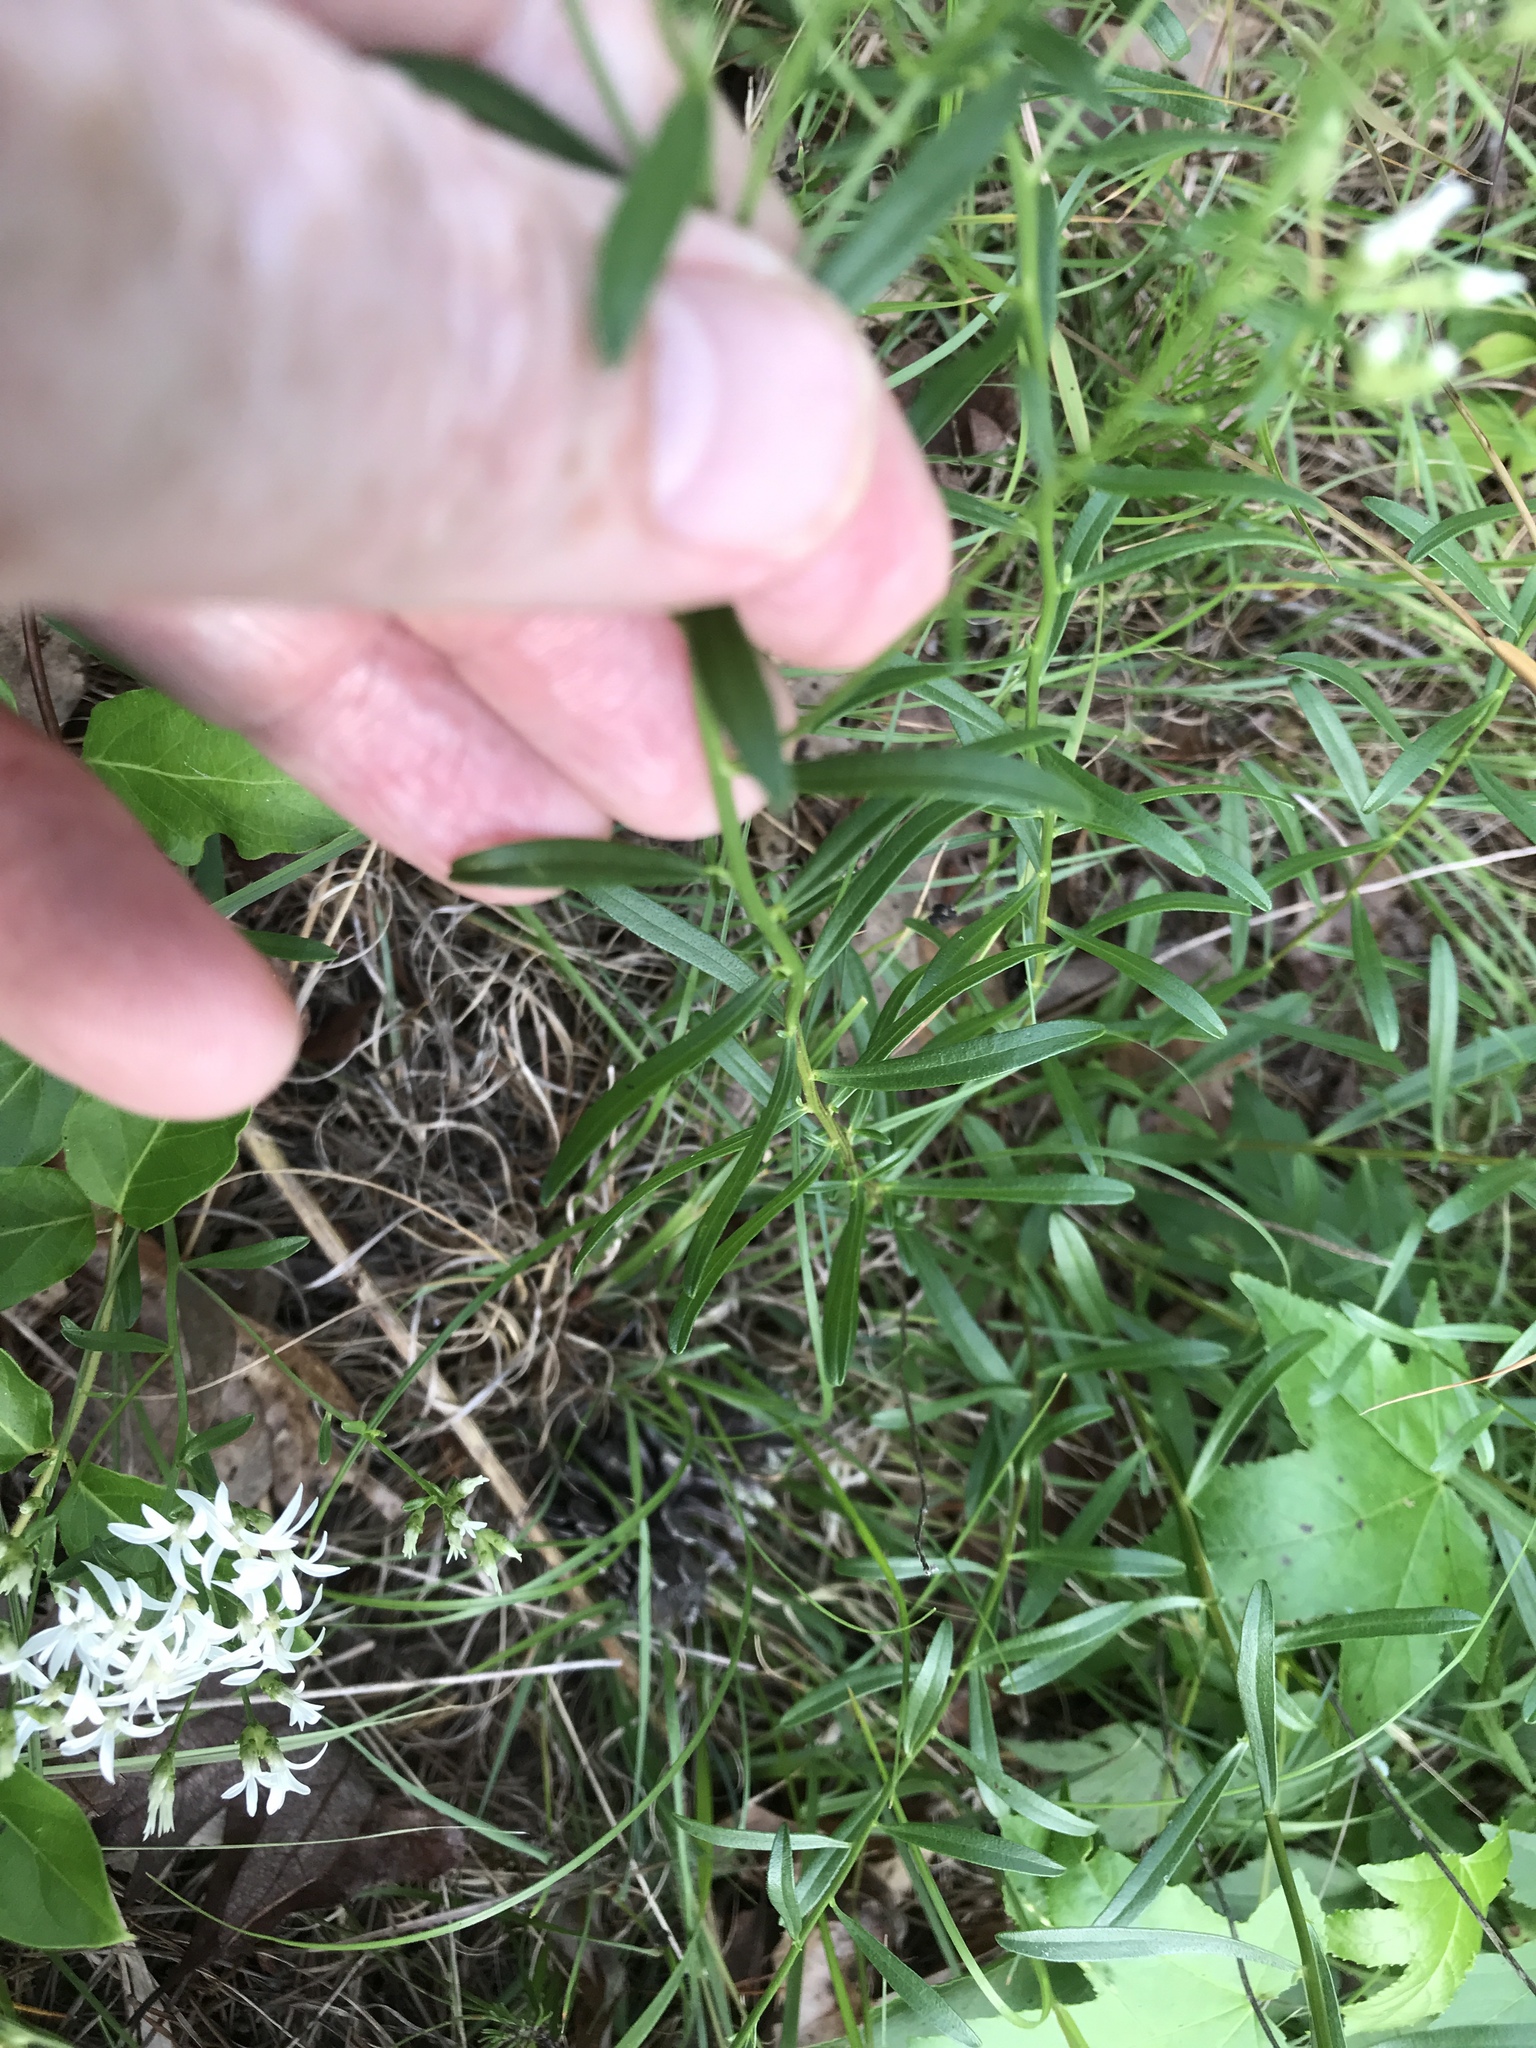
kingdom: Plantae
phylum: Tracheophyta
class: Magnoliopsida
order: Asterales
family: Asteraceae
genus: Sericocarpus
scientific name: Sericocarpus linifolius
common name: Narrow-leaf aster
